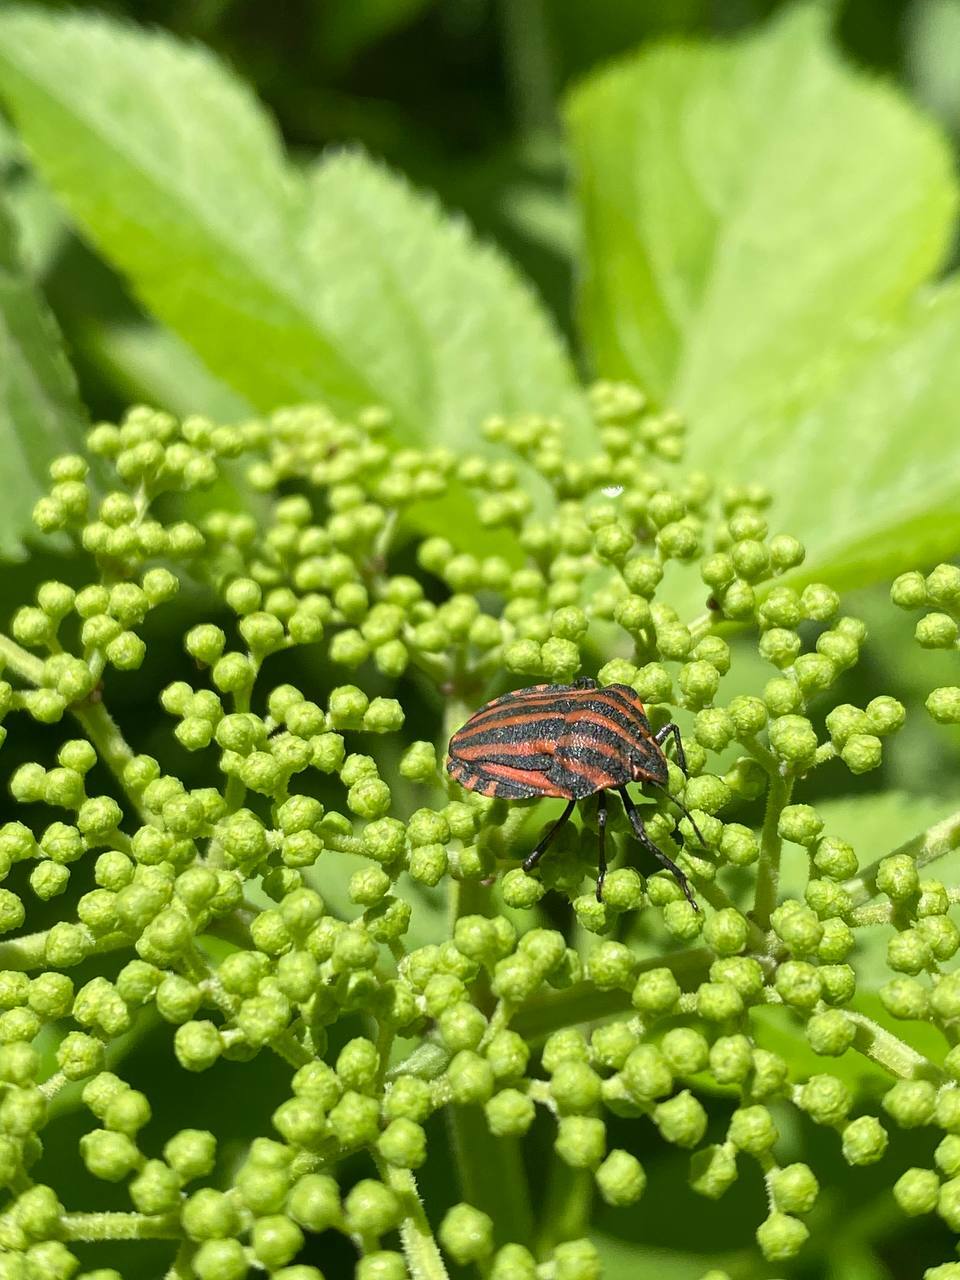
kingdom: Animalia
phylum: Arthropoda
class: Insecta
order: Hemiptera
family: Pentatomidae
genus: Graphosoma
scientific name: Graphosoma italicum
